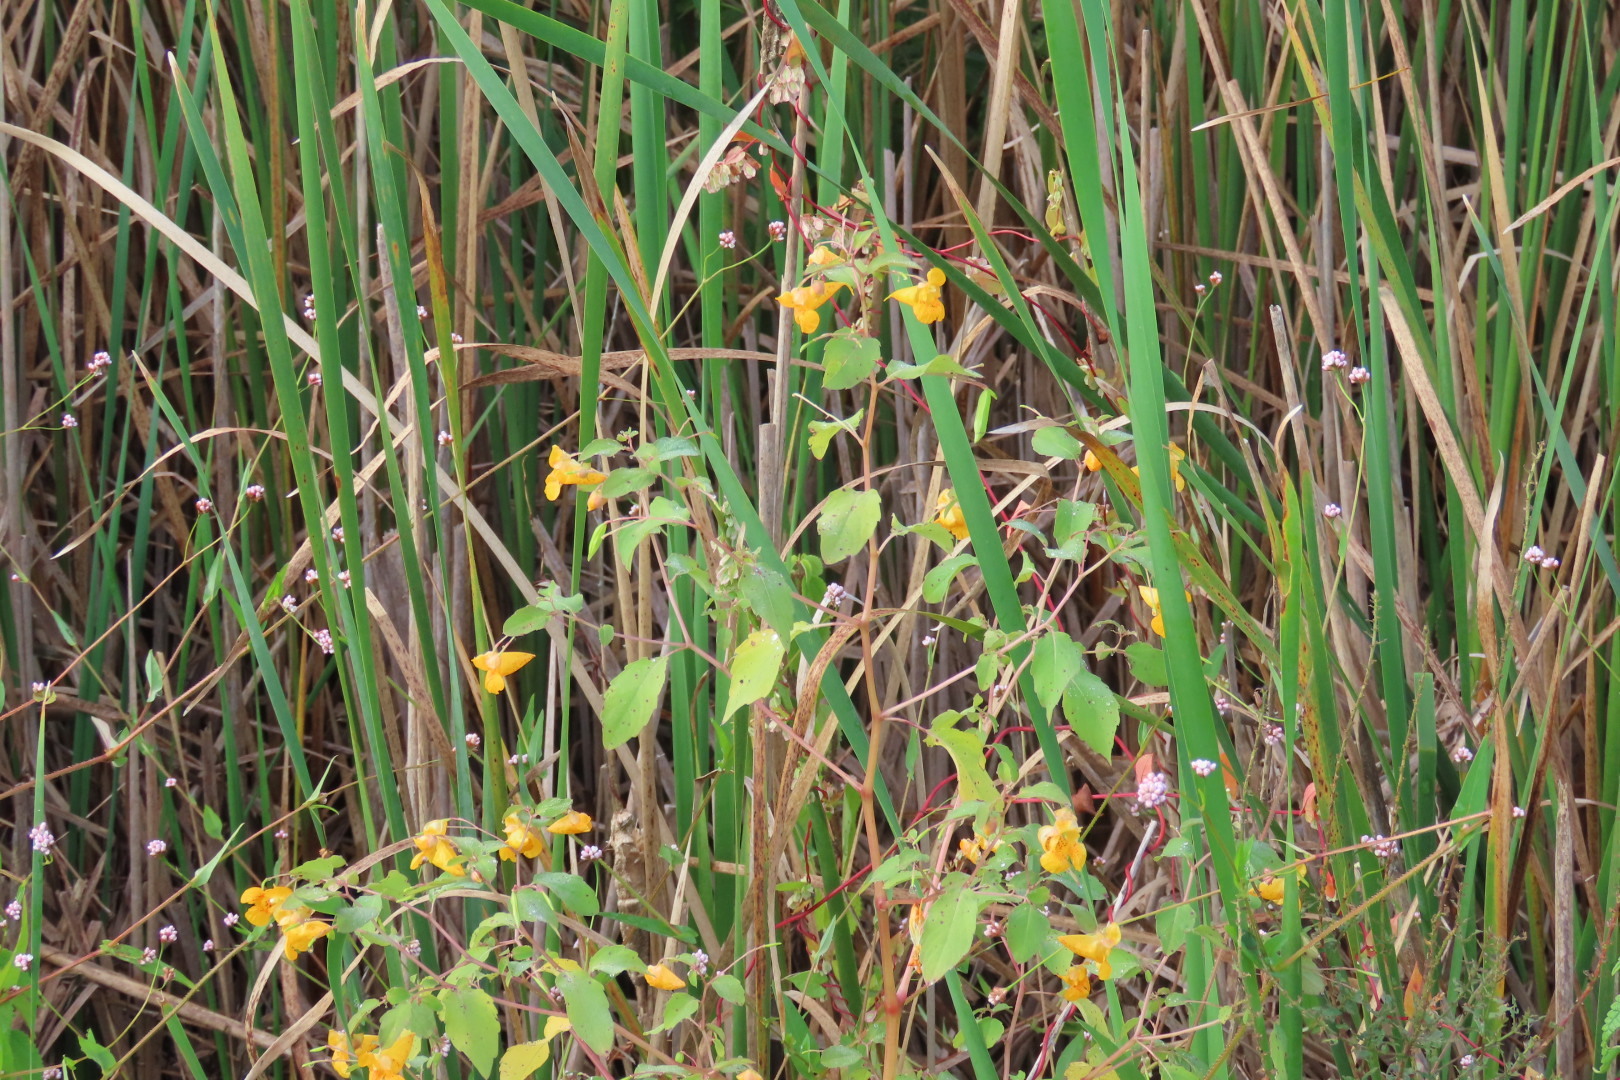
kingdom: Plantae
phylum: Tracheophyta
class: Magnoliopsida
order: Ericales
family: Balsaminaceae
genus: Impatiens
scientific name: Impatiens capensis
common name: Orange balsam
